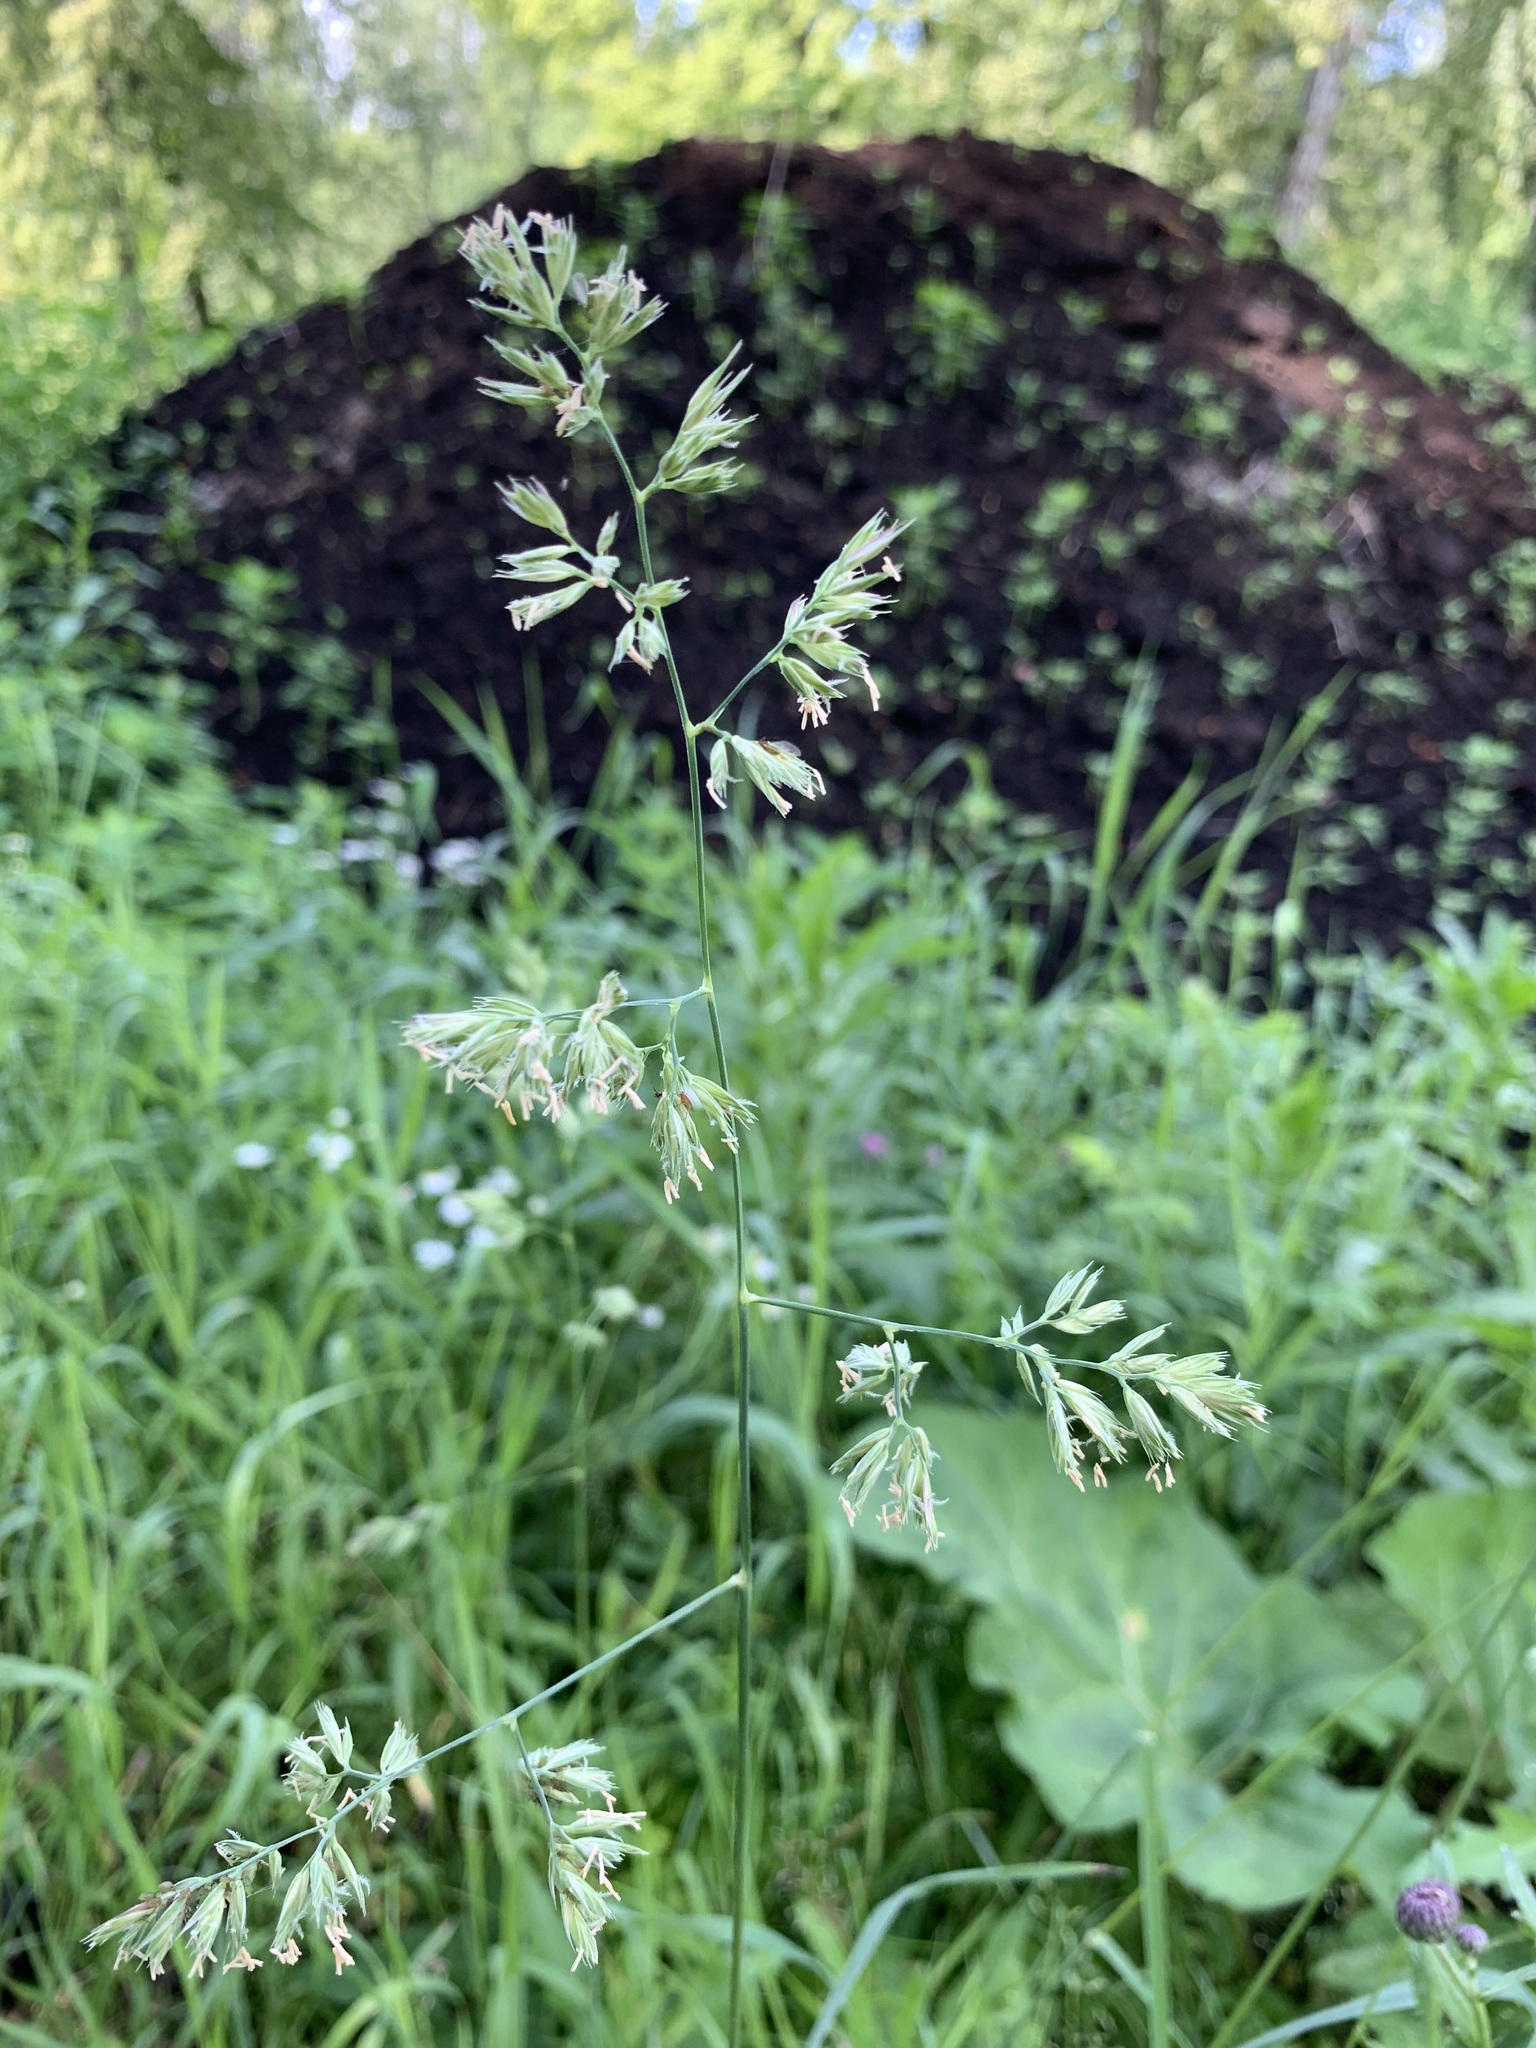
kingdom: Plantae
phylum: Tracheophyta
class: Liliopsida
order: Poales
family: Poaceae
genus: Dactylis
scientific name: Dactylis glomerata
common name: Orchardgrass
